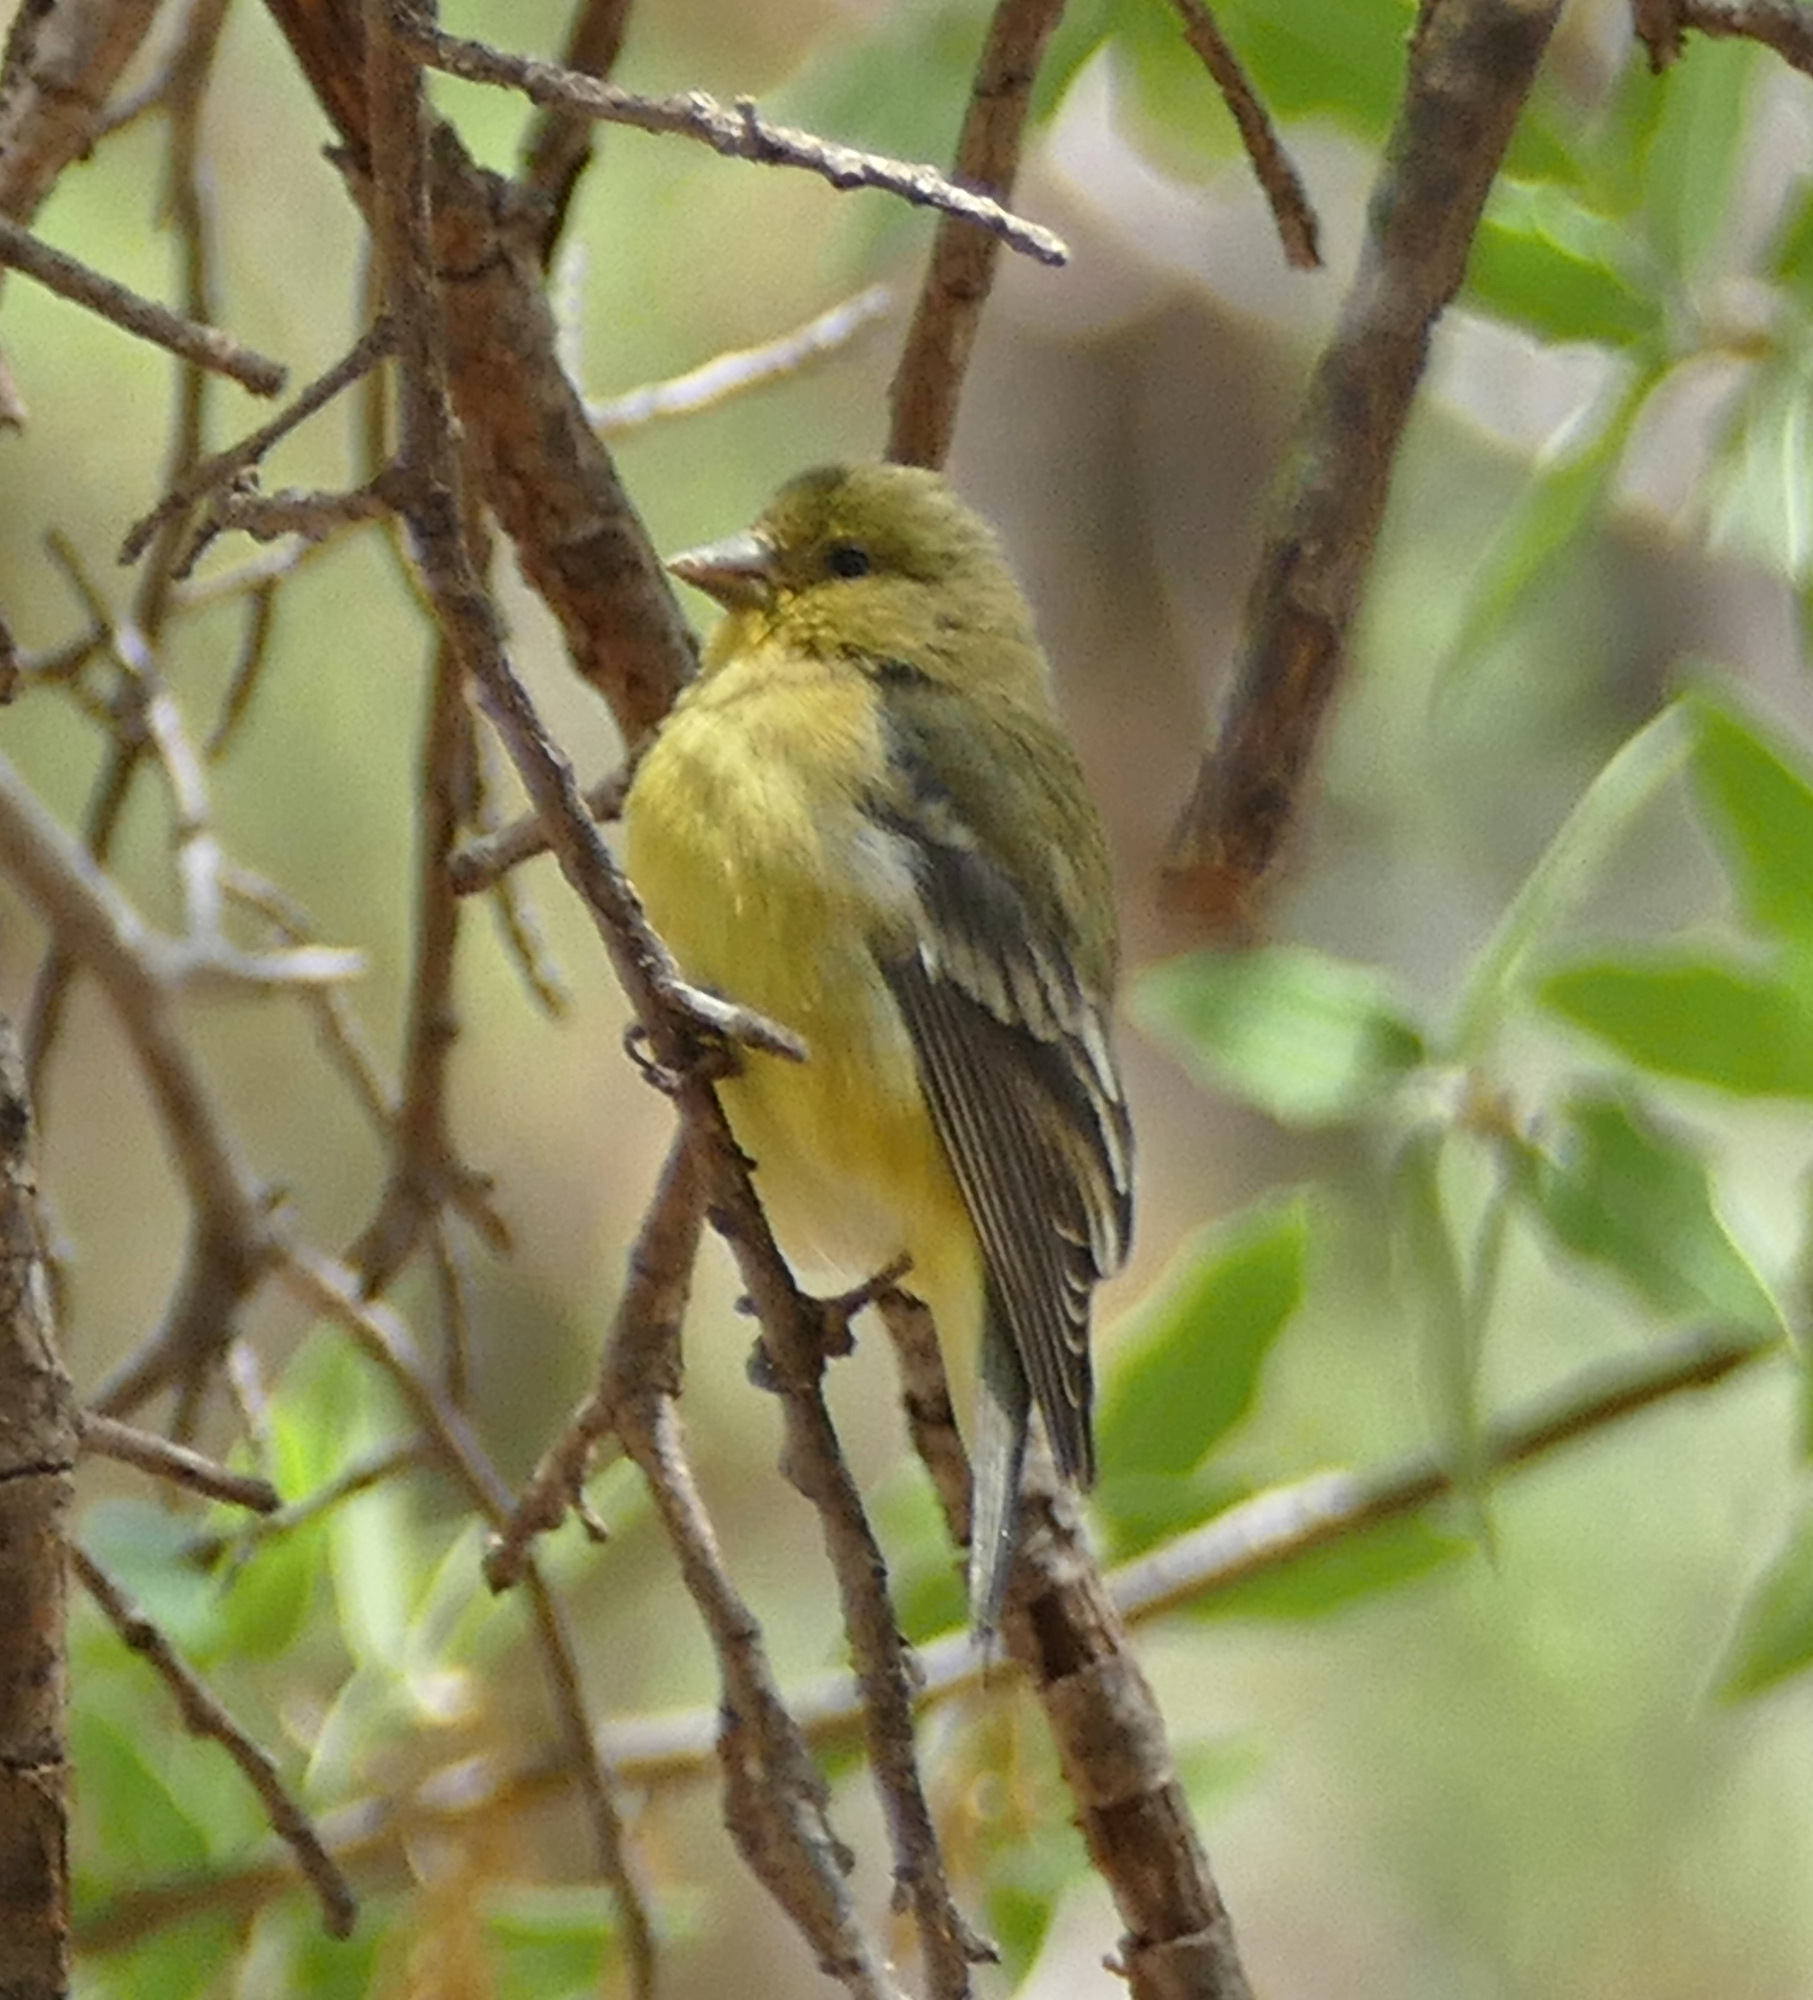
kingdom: Animalia
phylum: Chordata
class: Aves
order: Passeriformes
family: Fringillidae
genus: Spinus
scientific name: Spinus psaltria
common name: Lesser goldfinch
